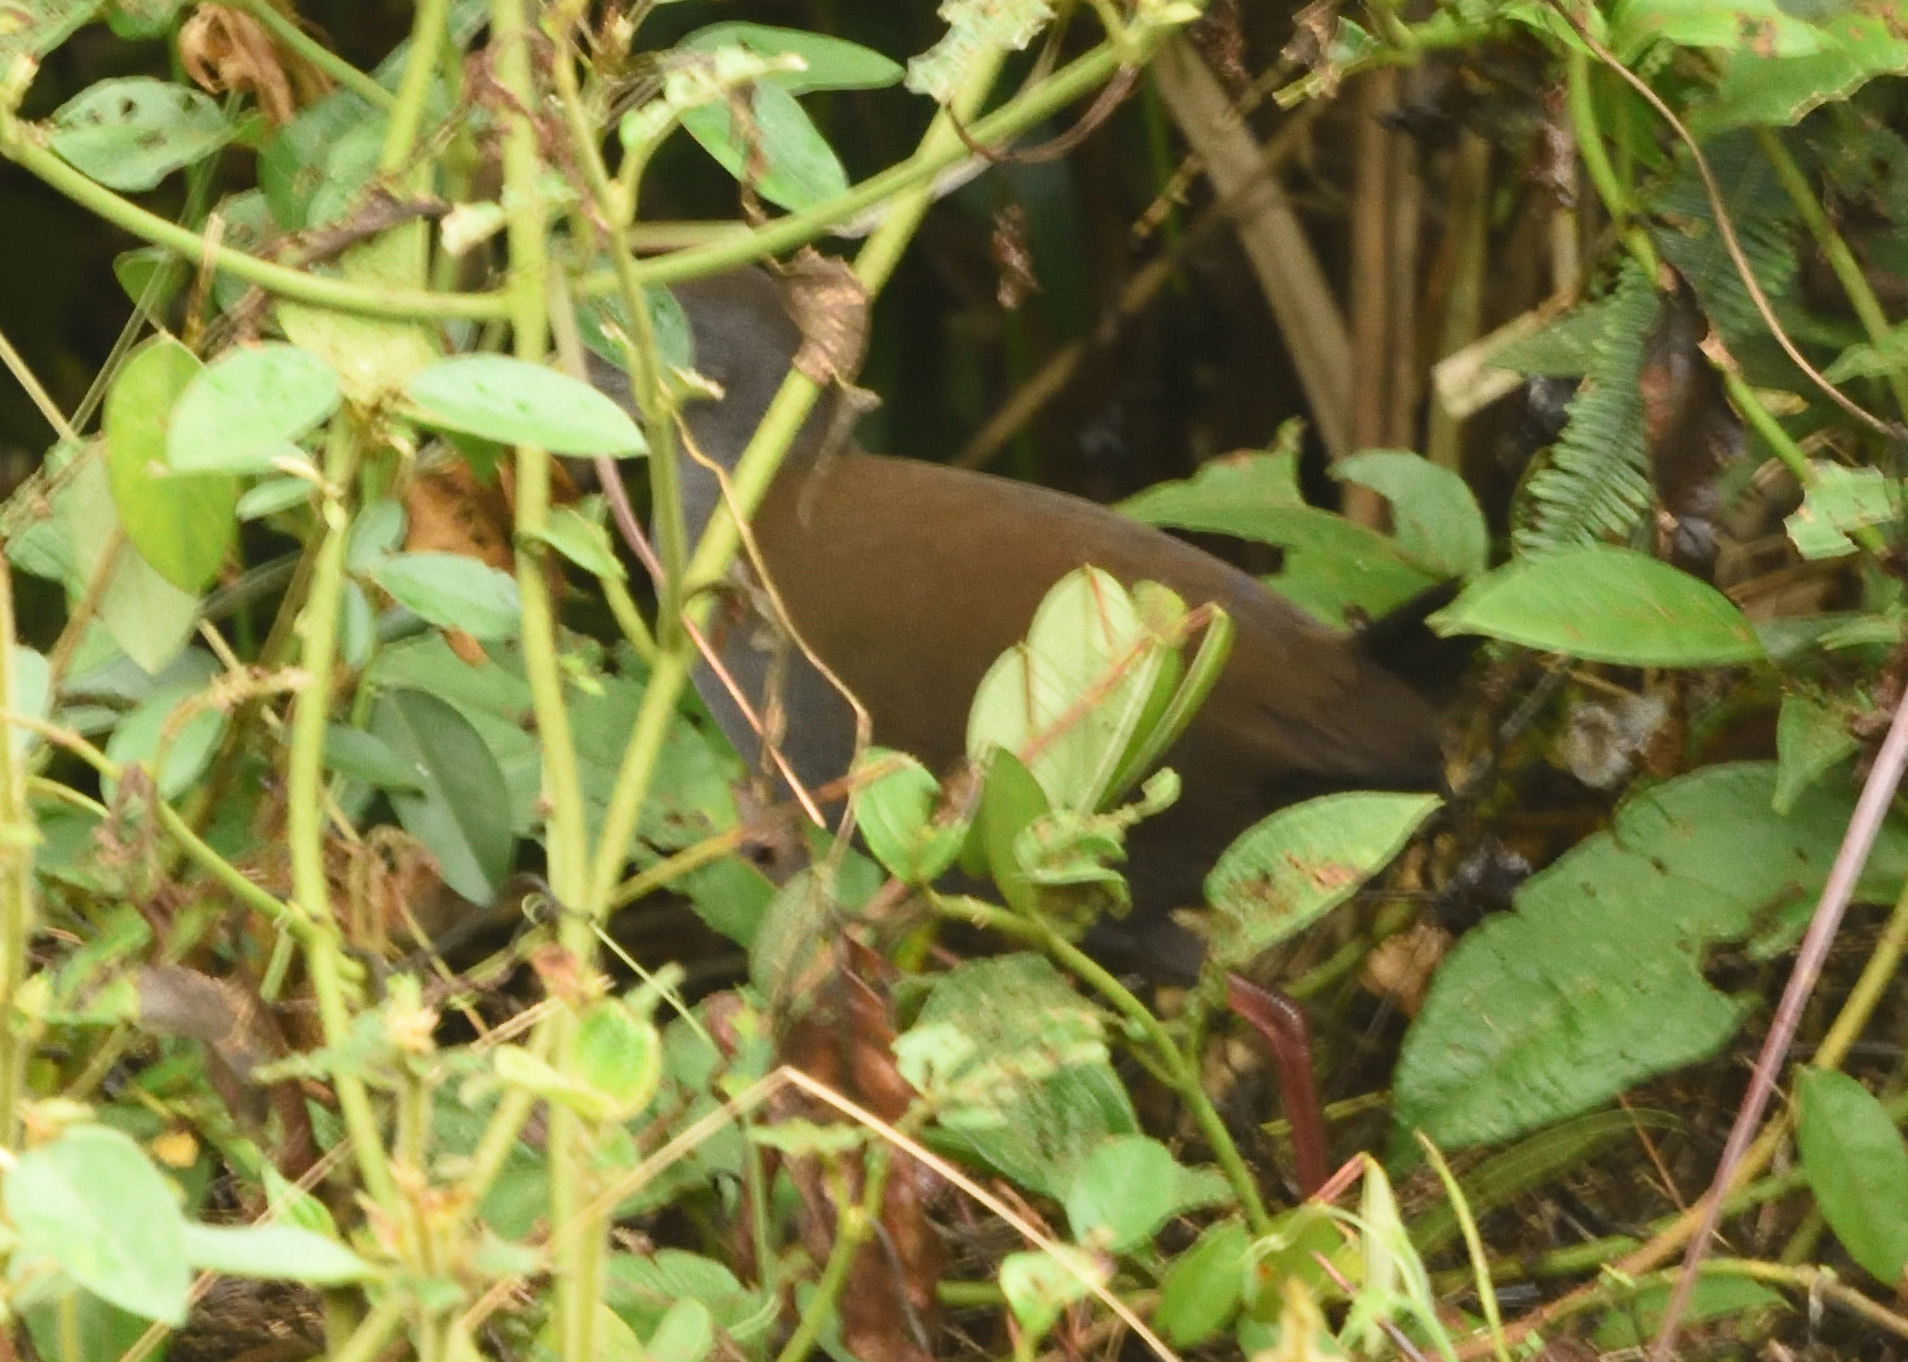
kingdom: Animalia
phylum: Chordata
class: Aves
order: Gruiformes
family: Rallidae
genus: Pardirallus
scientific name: Pardirallus nigricans
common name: Blackish rail
